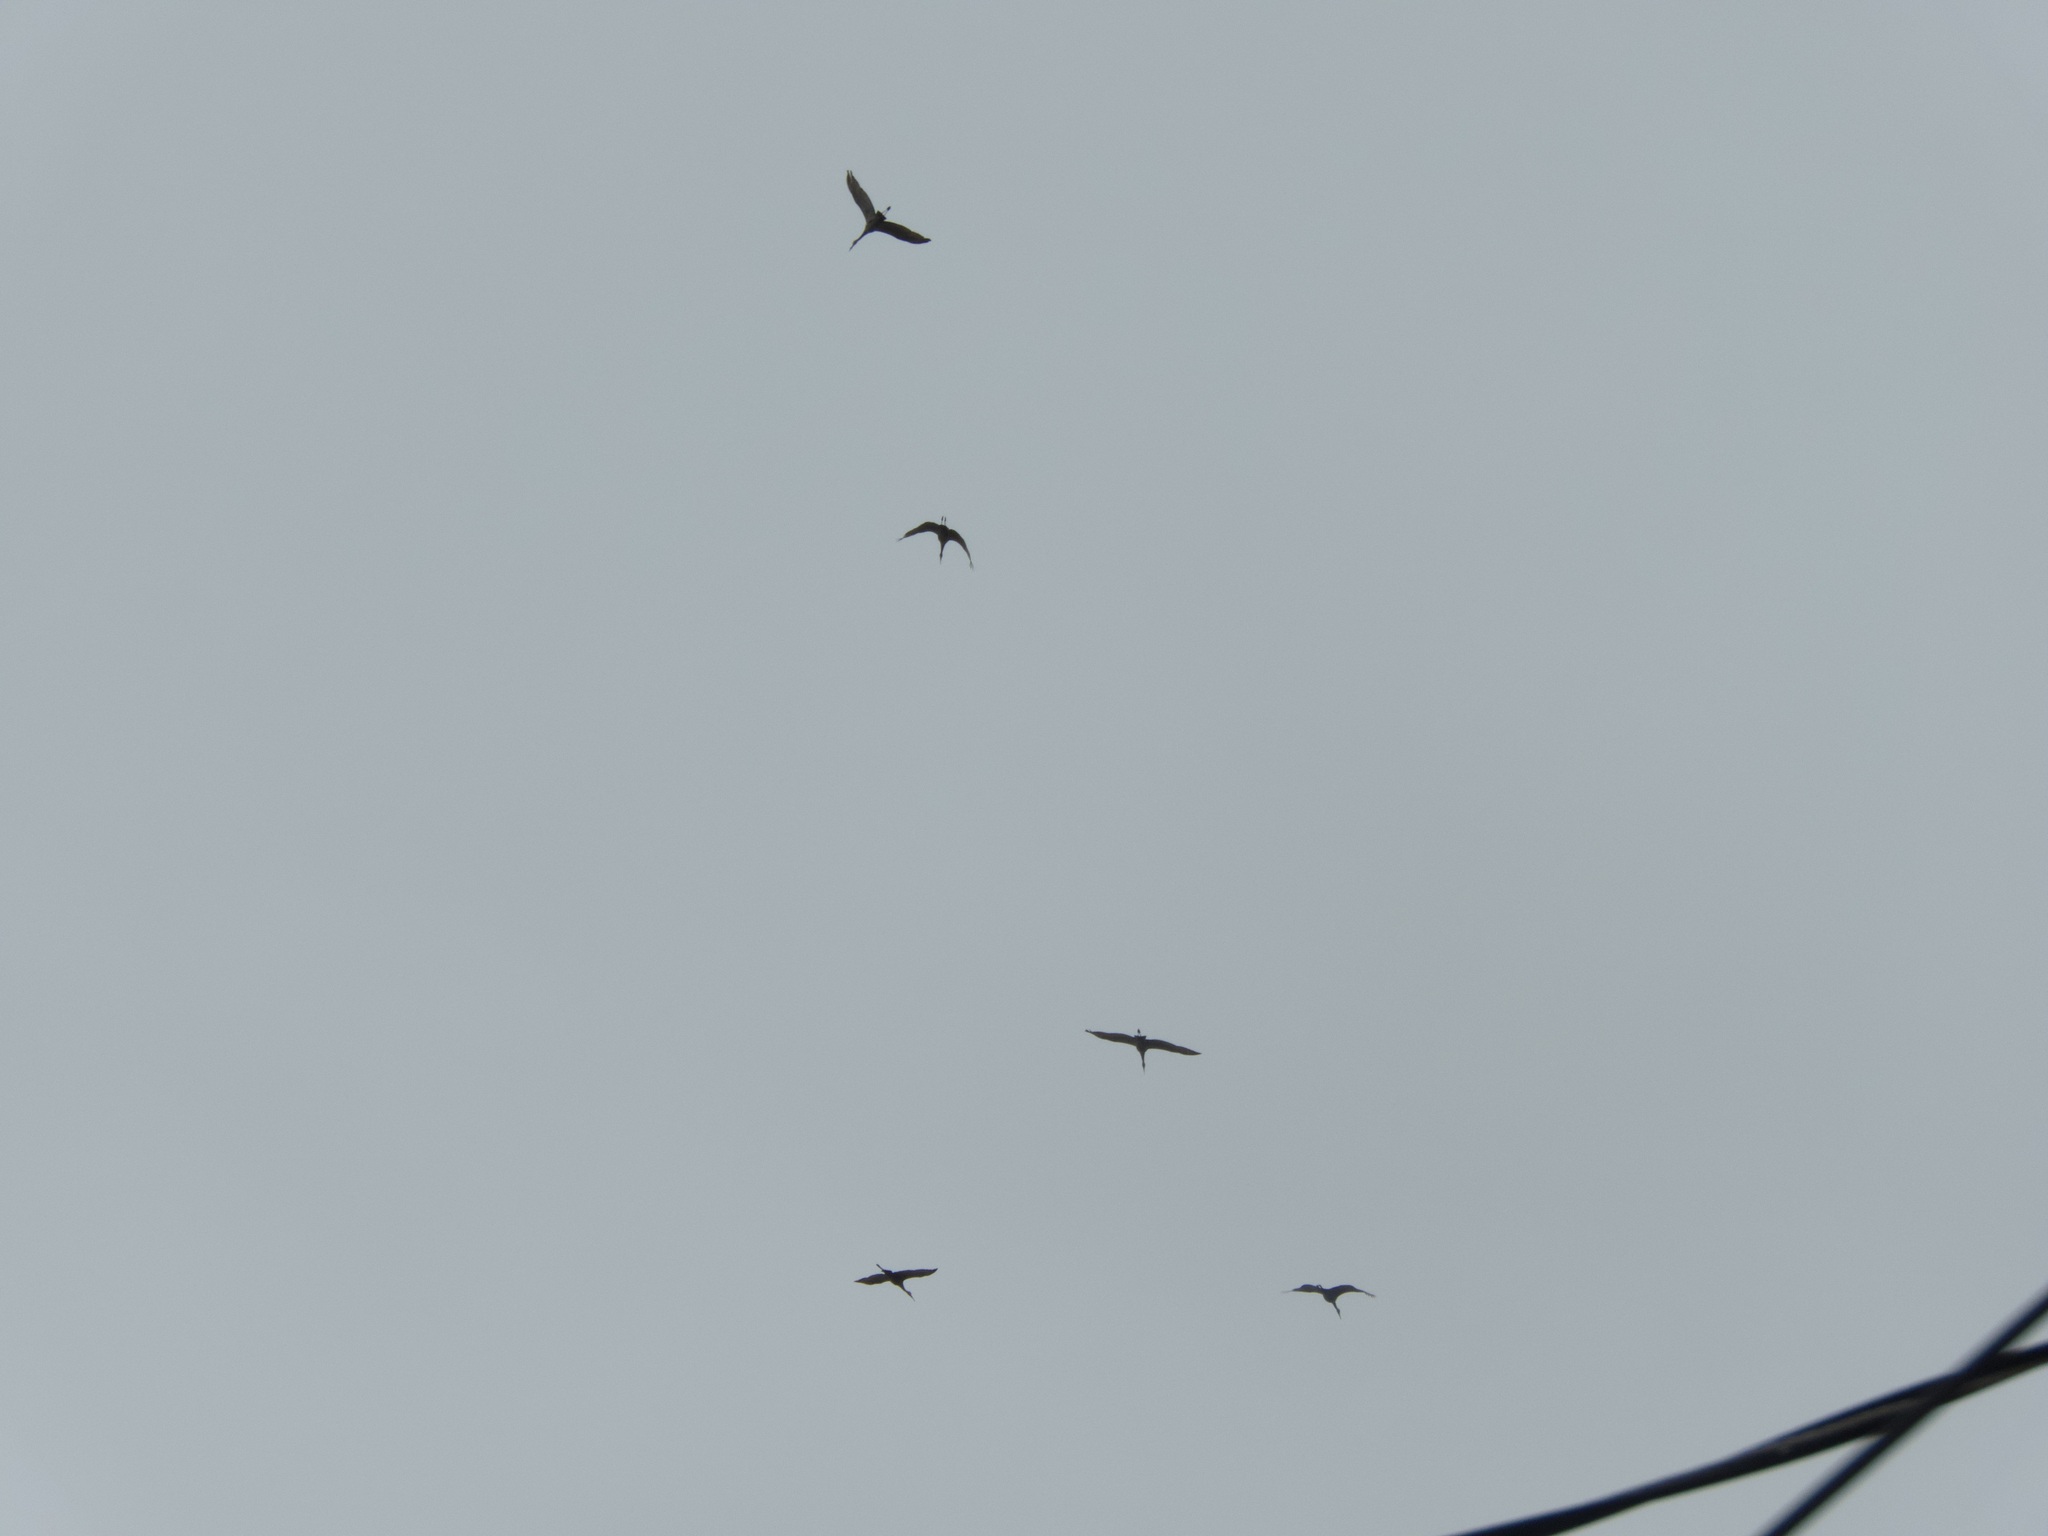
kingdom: Animalia
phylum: Chordata
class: Aves
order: Gruiformes
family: Gruidae
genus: Grus
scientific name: Grus canadensis
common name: Sandhill crane
